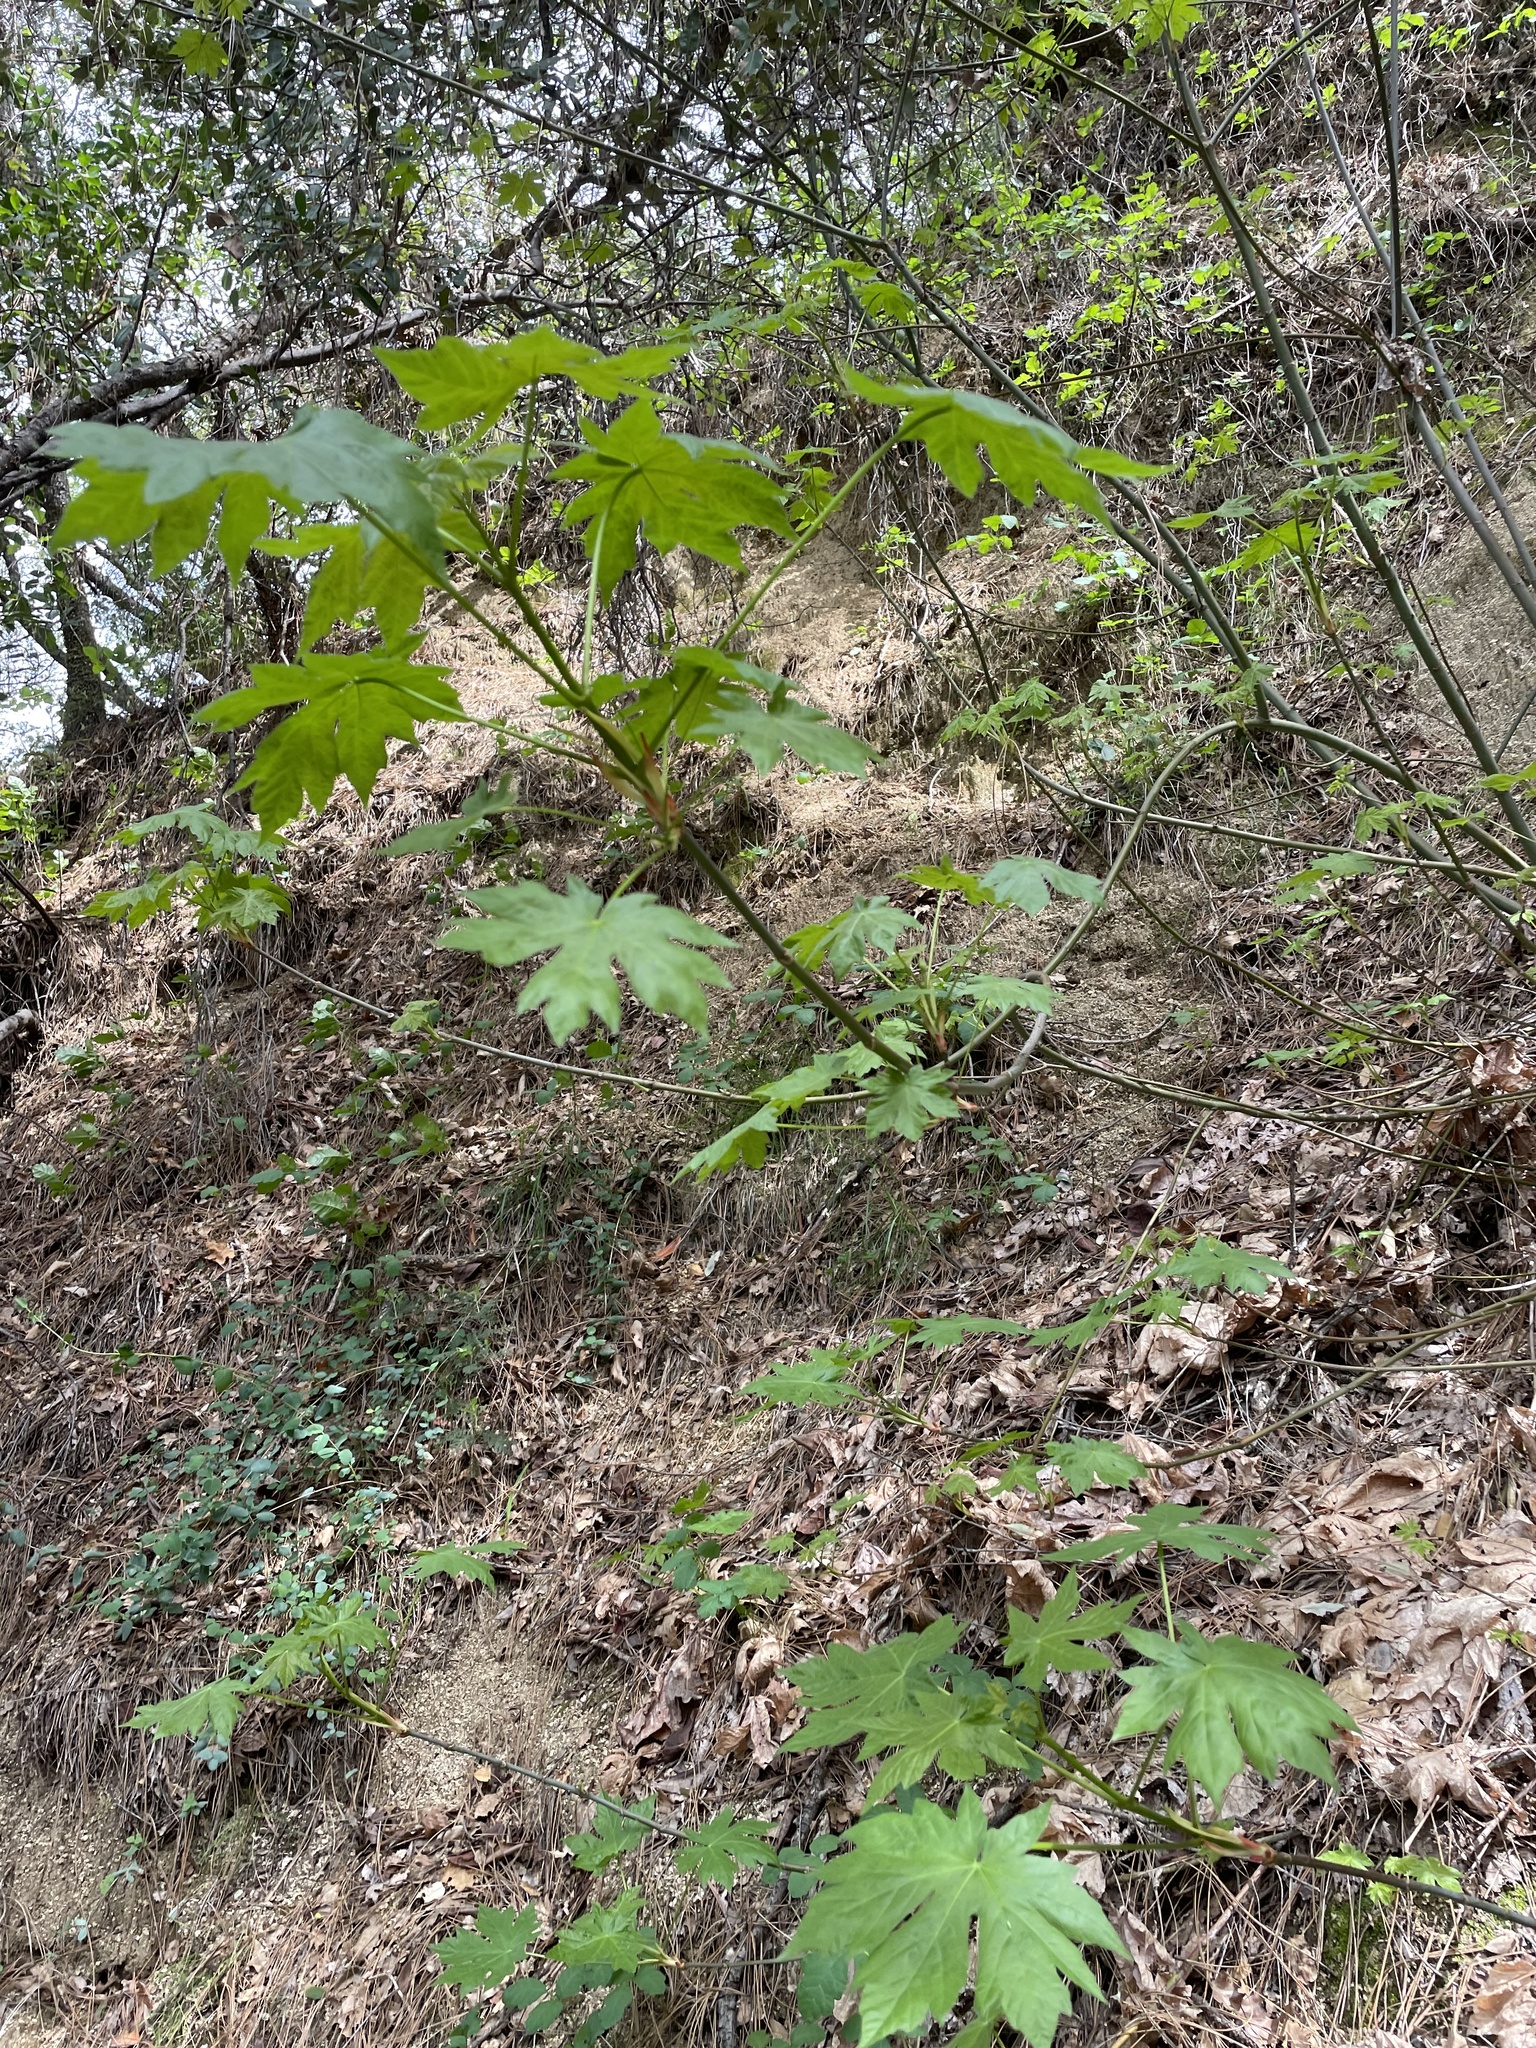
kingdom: Plantae
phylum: Tracheophyta
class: Magnoliopsida
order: Sapindales
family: Sapindaceae
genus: Acer
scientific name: Acer macrophyllum
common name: Oregon maple
